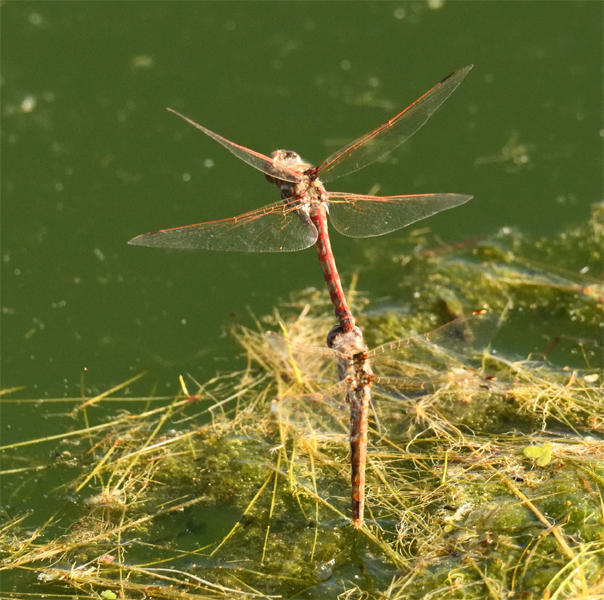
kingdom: Animalia
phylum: Arthropoda
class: Insecta
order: Odonata
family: Libellulidae
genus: Sympetrum
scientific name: Sympetrum corruptum
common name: Variegated meadowhawk
